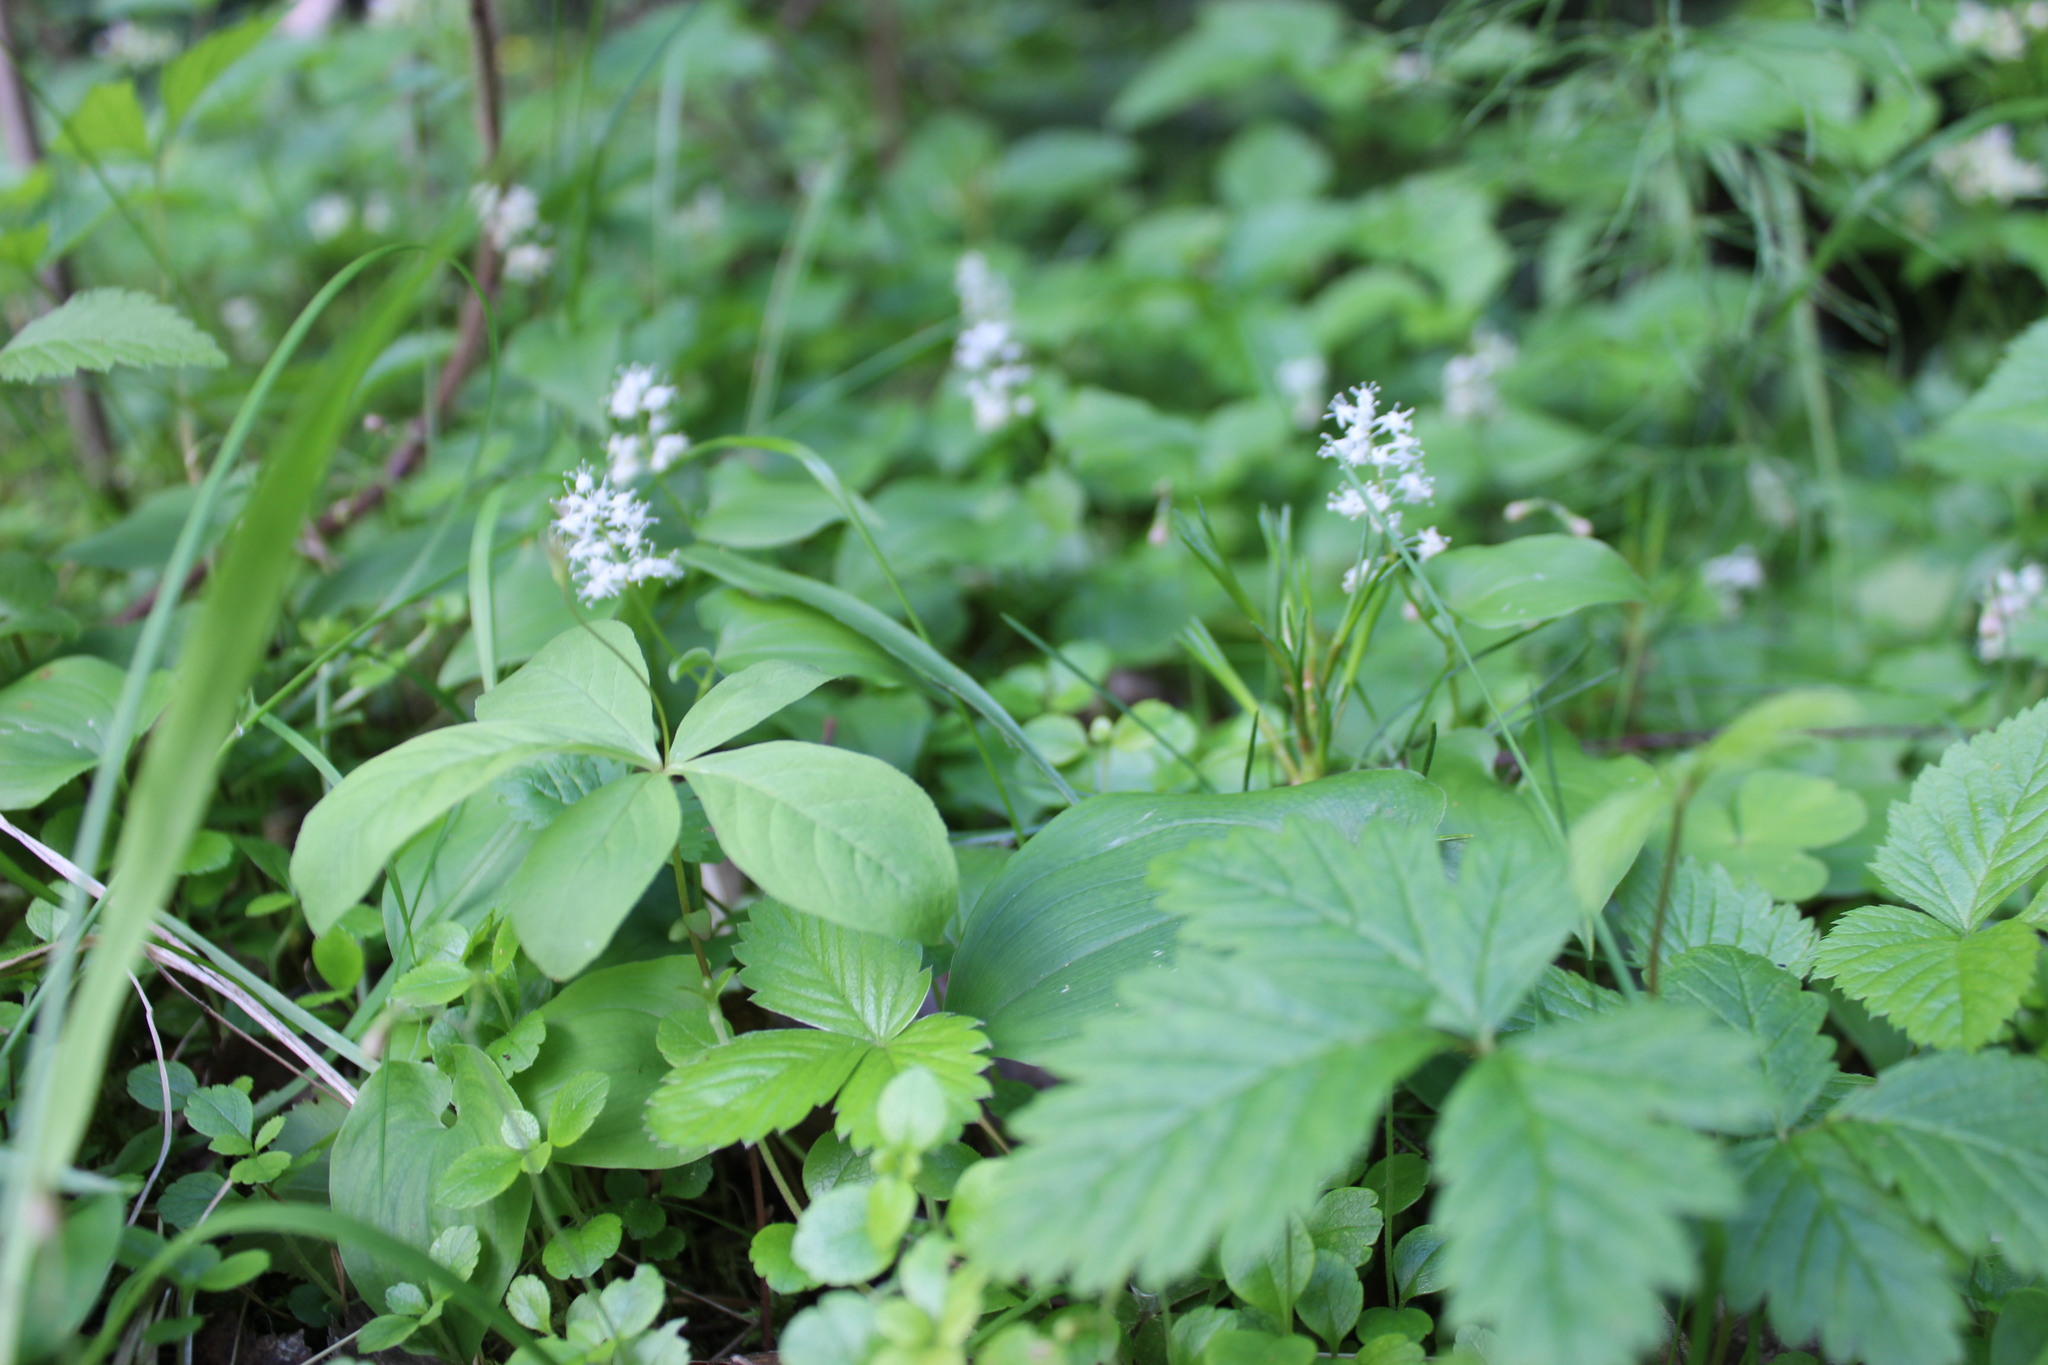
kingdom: Plantae
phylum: Tracheophyta
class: Magnoliopsida
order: Ericales
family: Primulaceae
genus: Lysimachia
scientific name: Lysimachia europaea
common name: Arctic starflower
